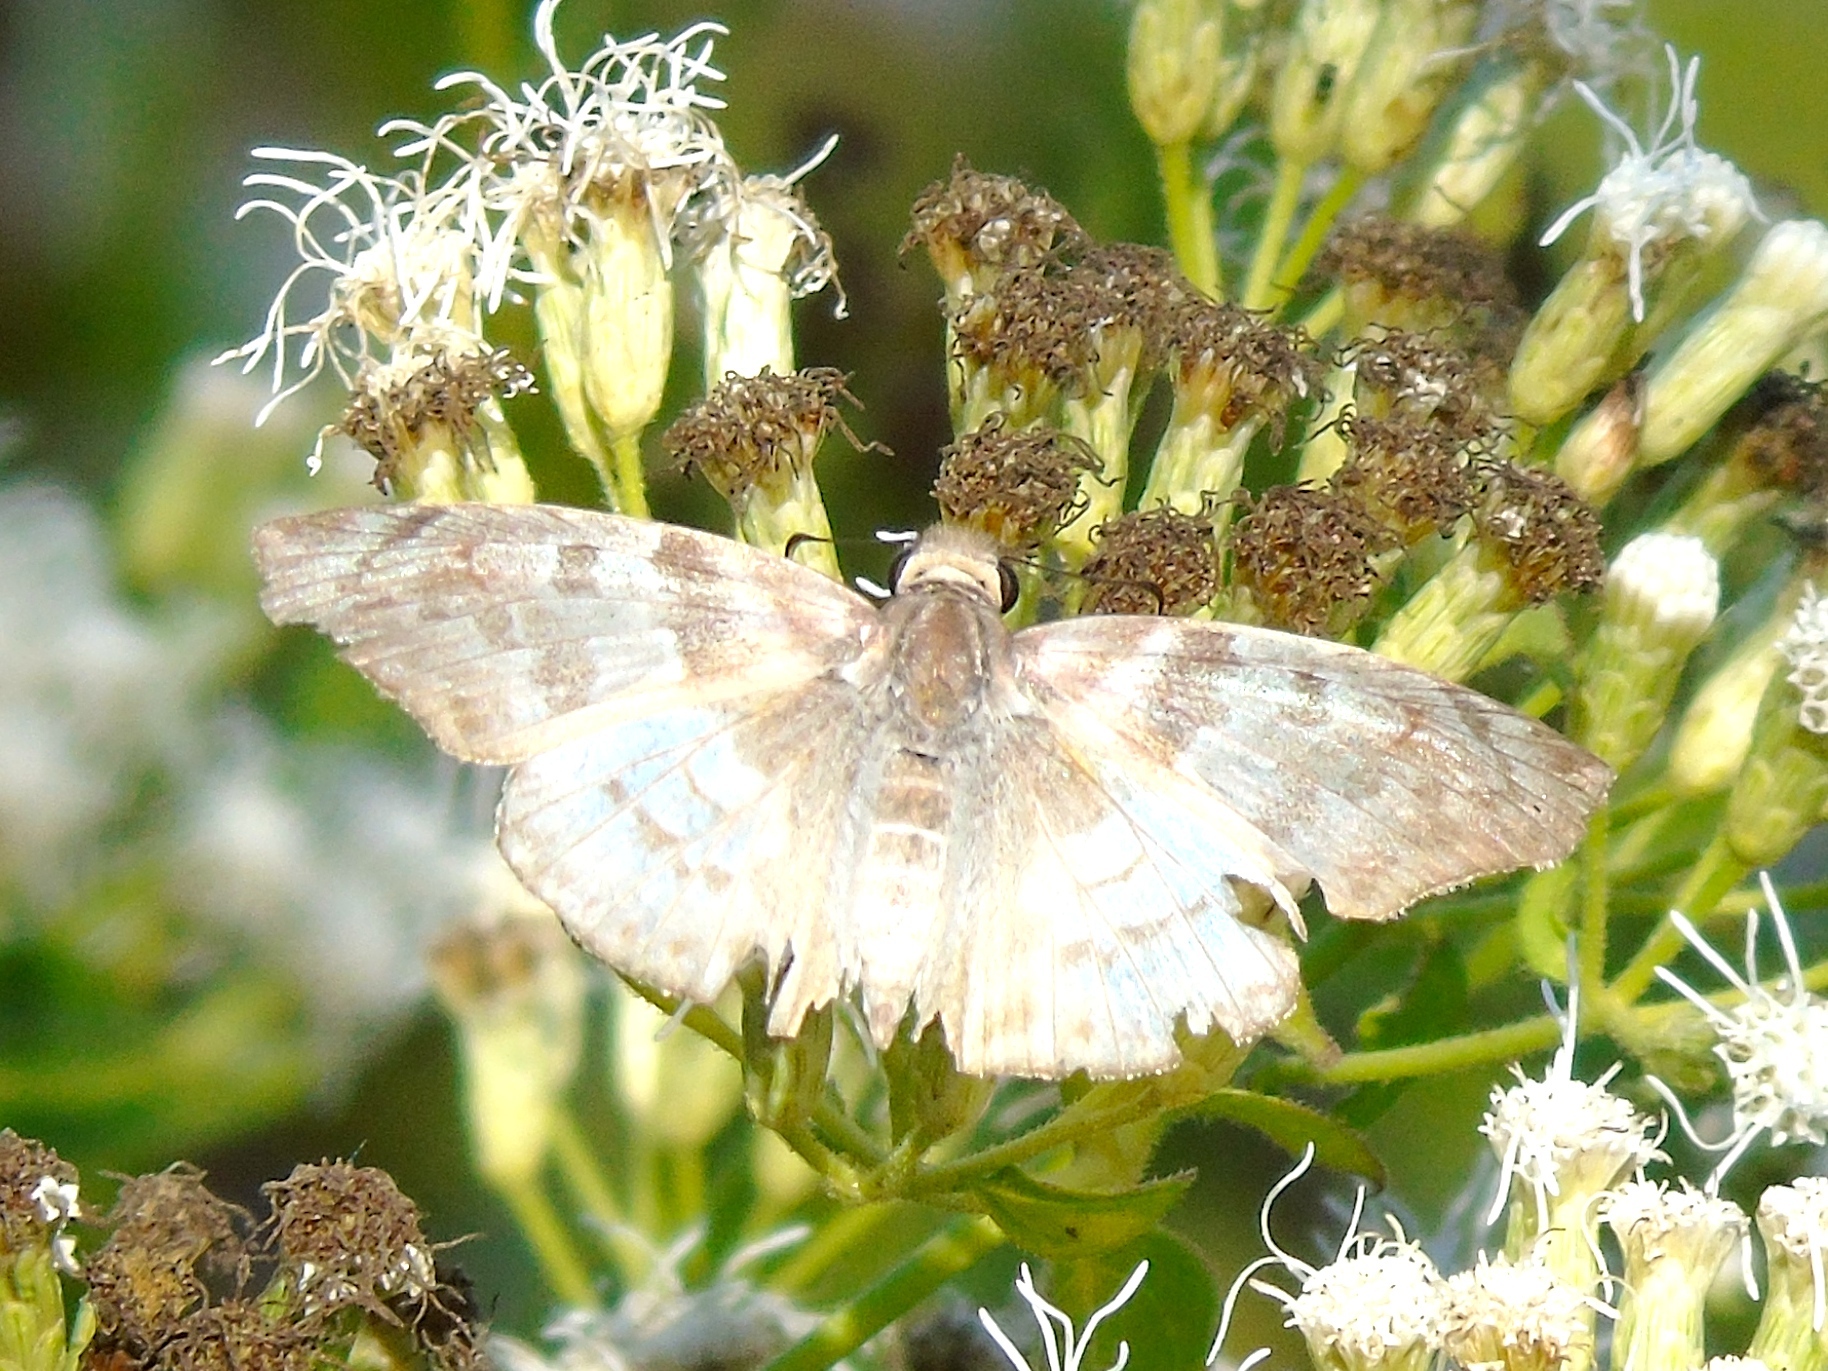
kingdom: Animalia
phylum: Arthropoda
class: Insecta
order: Lepidoptera
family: Hesperiidae
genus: Mylon
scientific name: Mylon pelopidas
